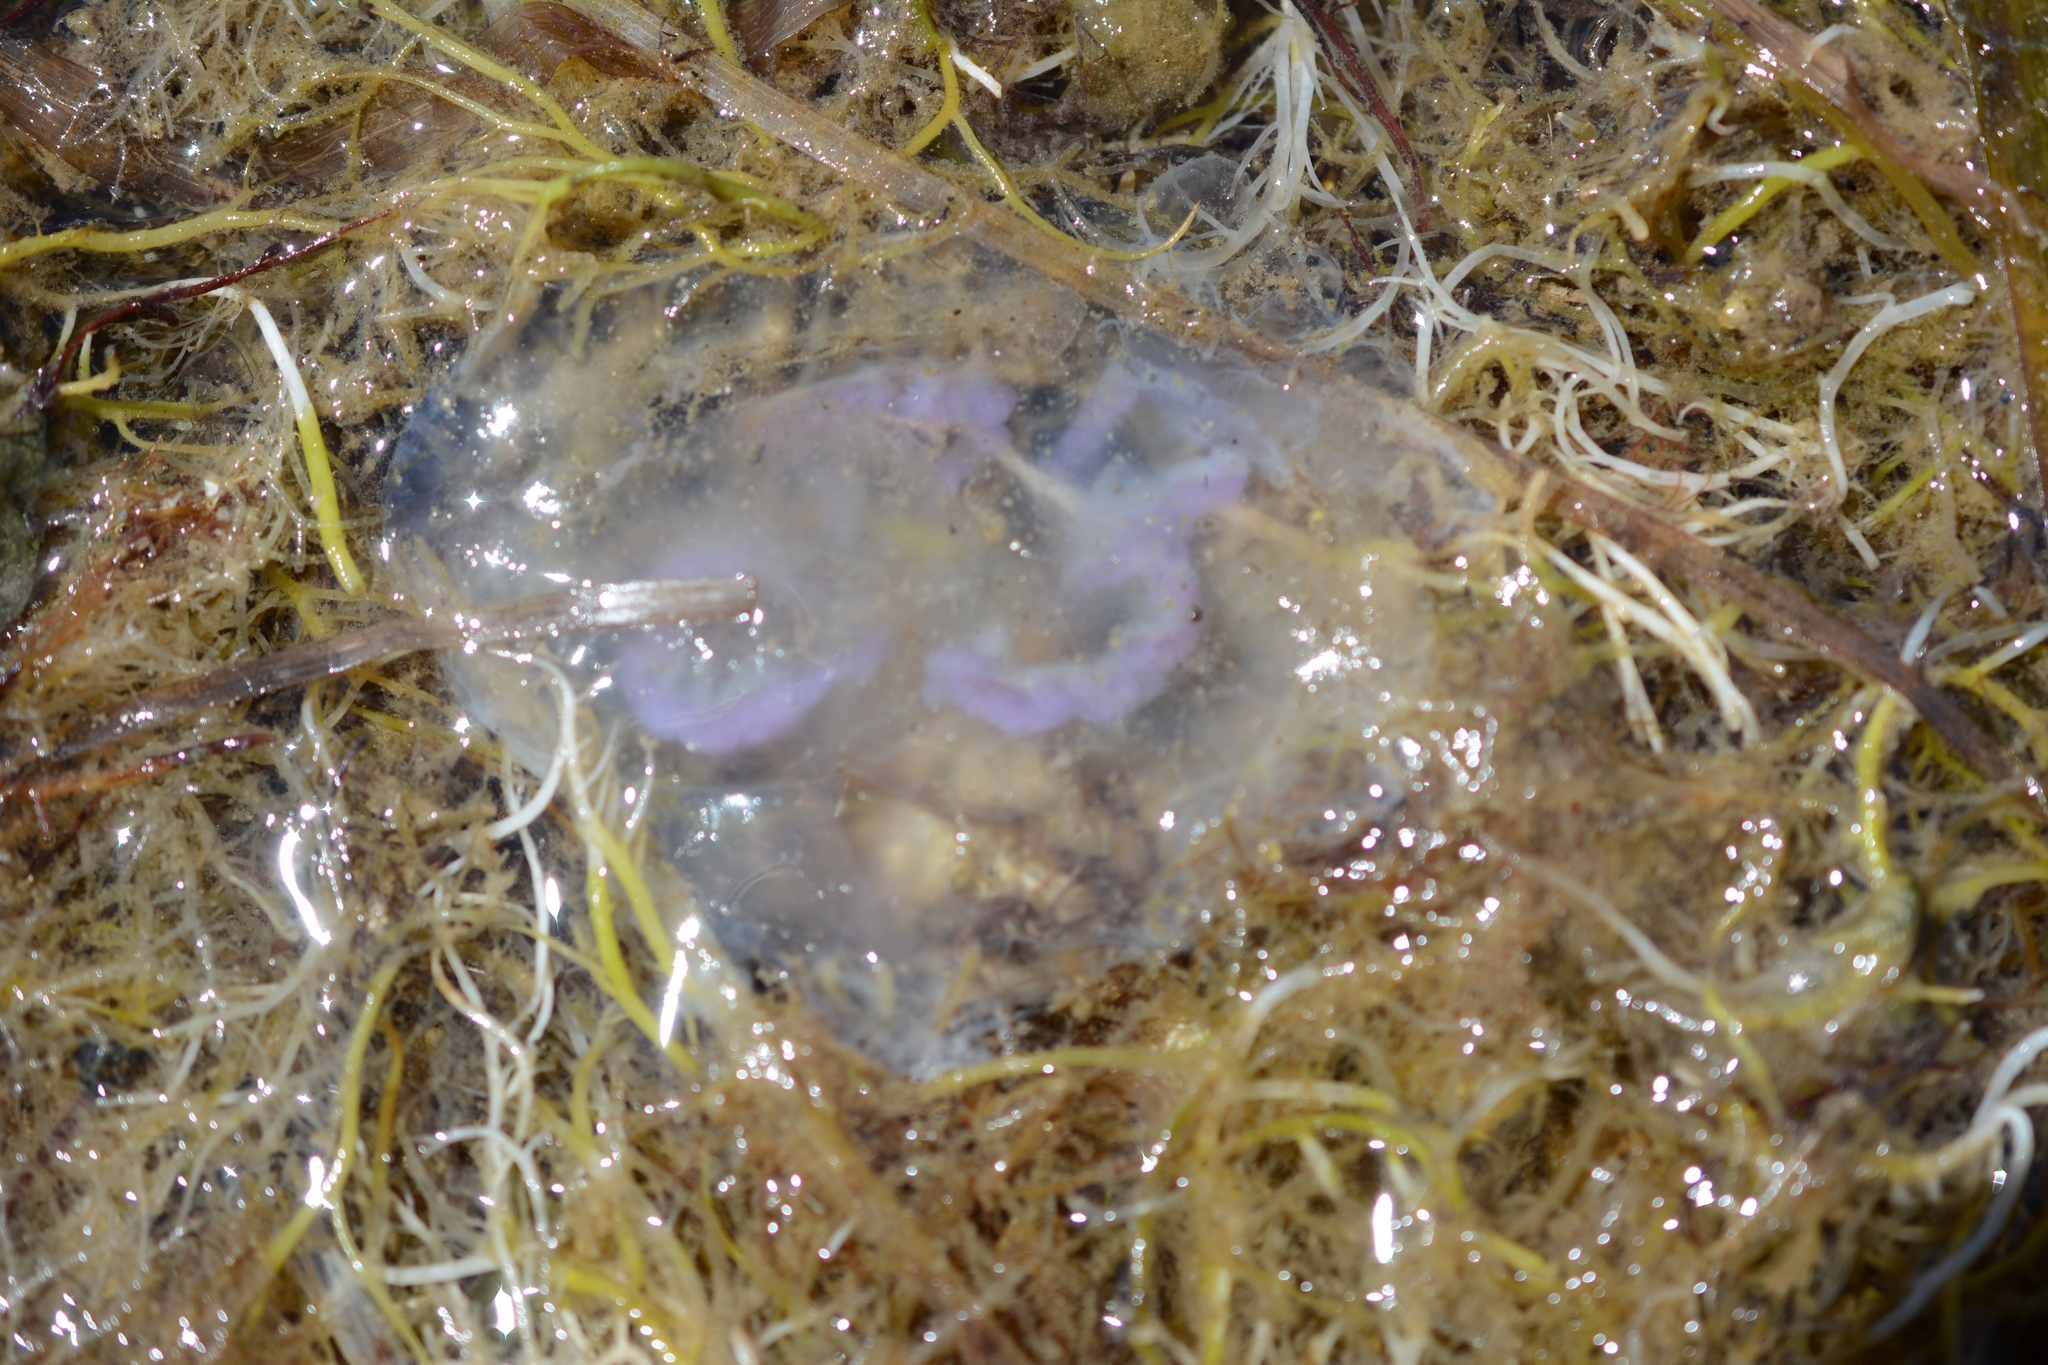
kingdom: Animalia
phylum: Cnidaria
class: Scyphozoa
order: Semaeostomeae
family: Ulmaridae
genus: Aurelia
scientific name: Aurelia labiata
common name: Pacific moon jelly
